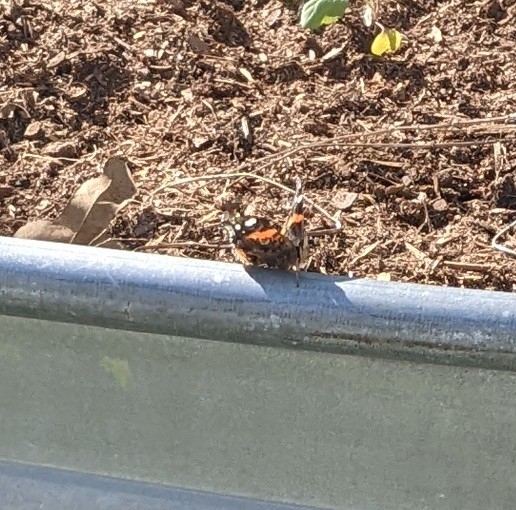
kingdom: Animalia
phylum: Arthropoda
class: Insecta
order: Lepidoptera
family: Nymphalidae
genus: Vanessa
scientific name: Vanessa atalanta
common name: Red admiral
